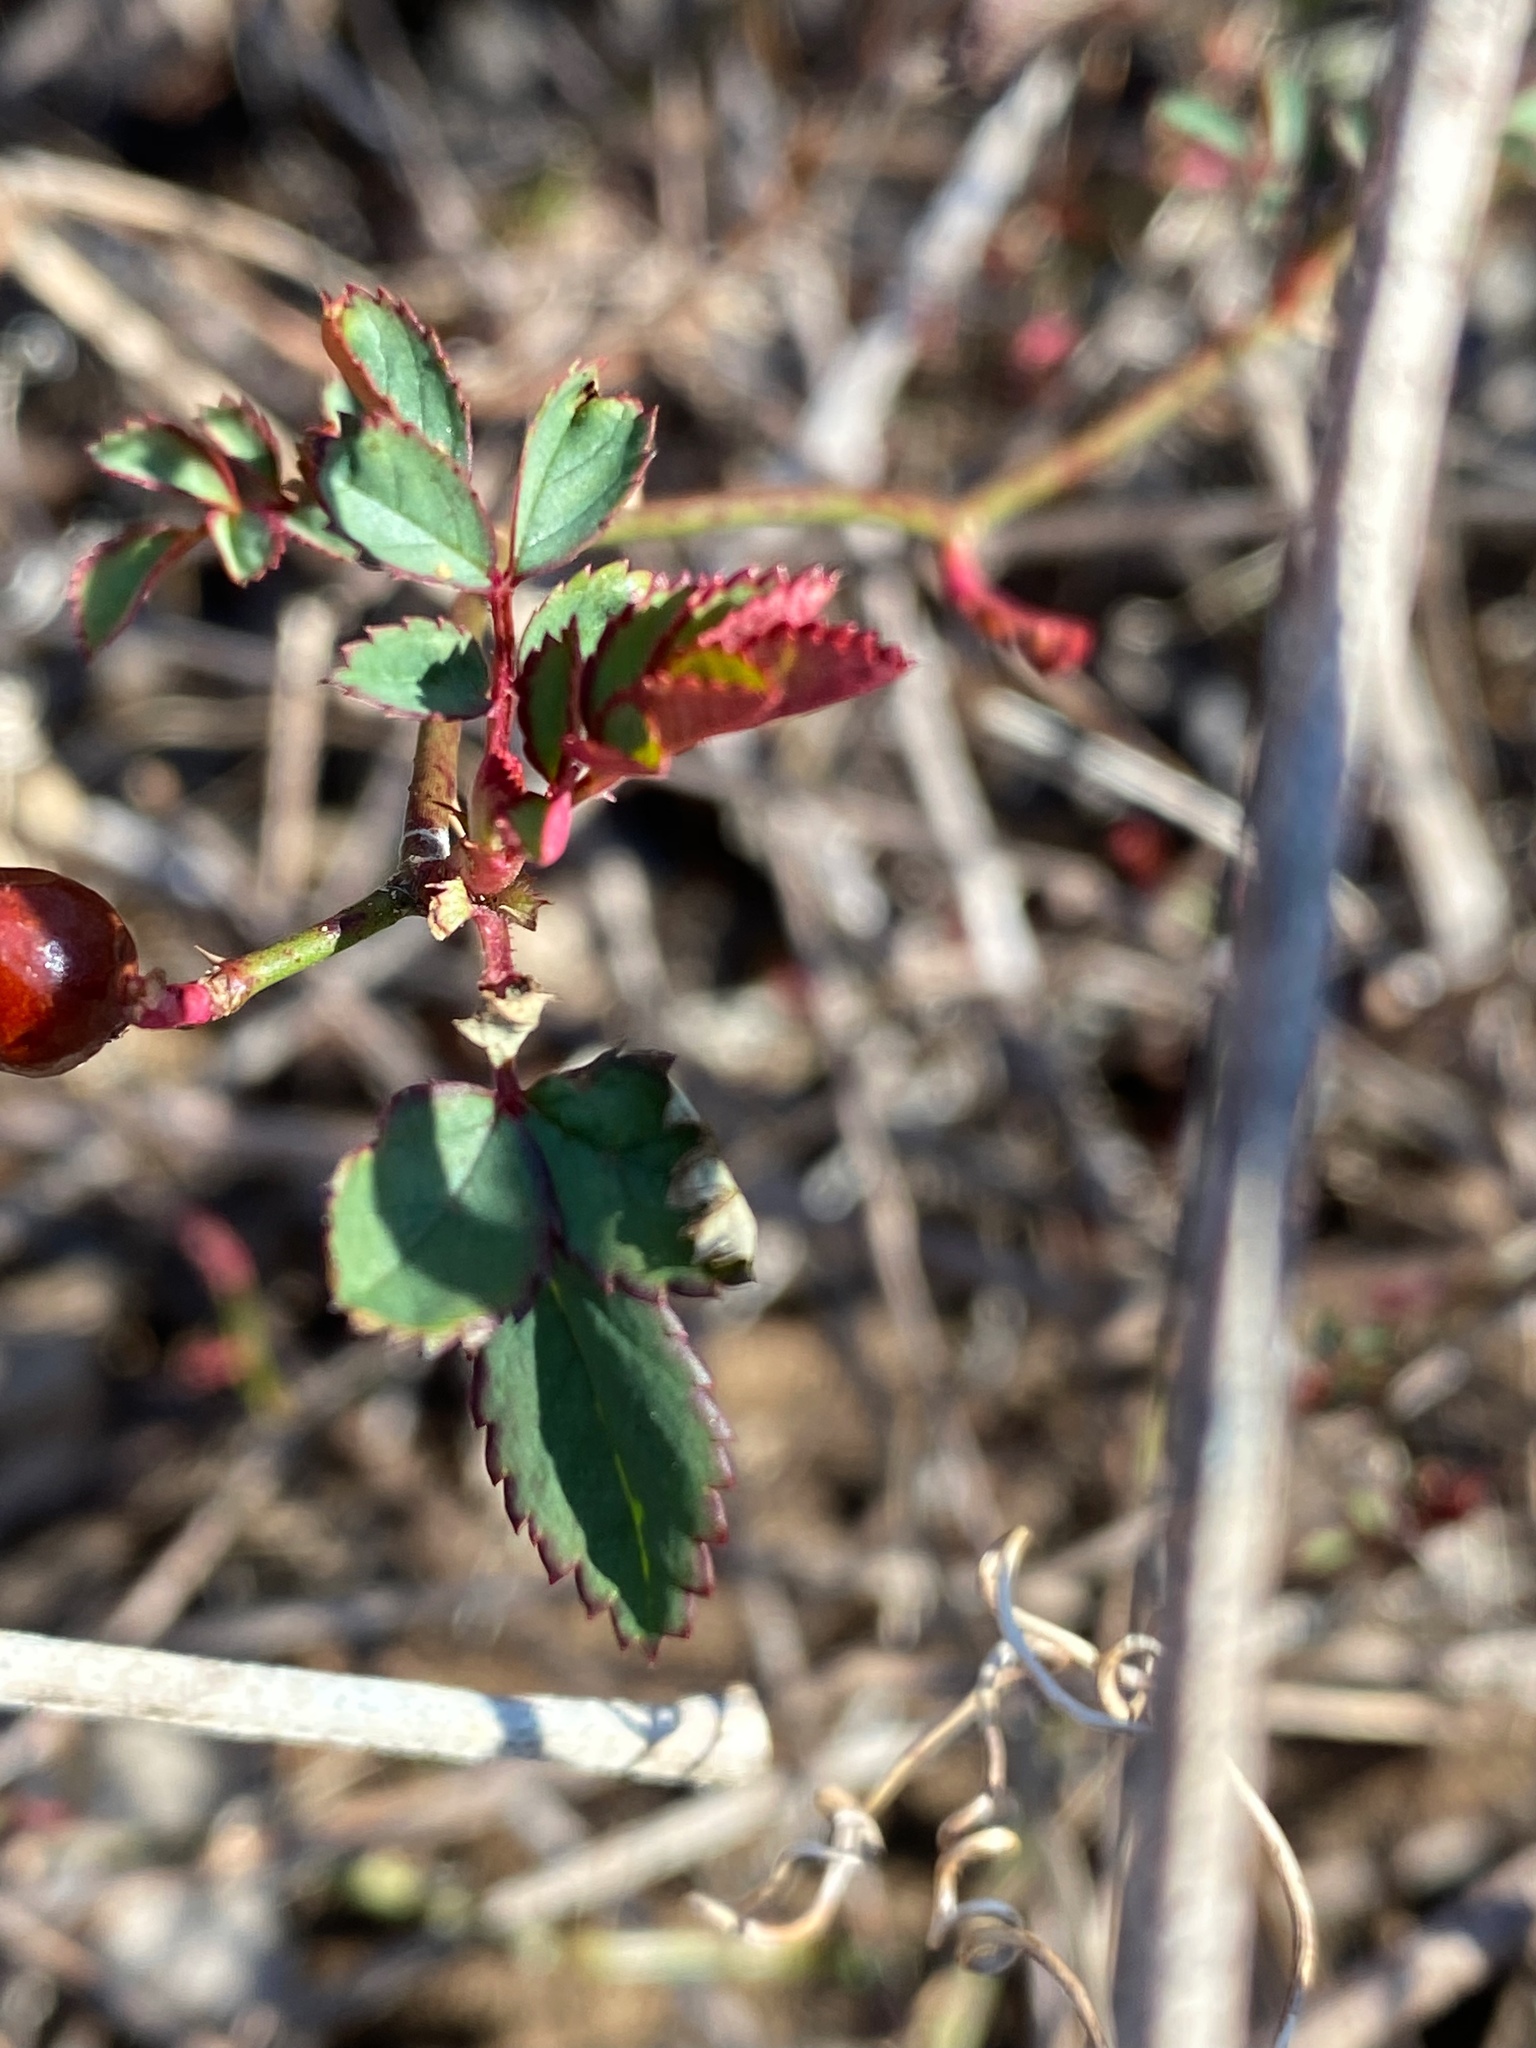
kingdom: Plantae
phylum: Tracheophyta
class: Magnoliopsida
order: Rosales
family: Rosaceae
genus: Rosa
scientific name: Rosa multiflora
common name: Multiflora rose
